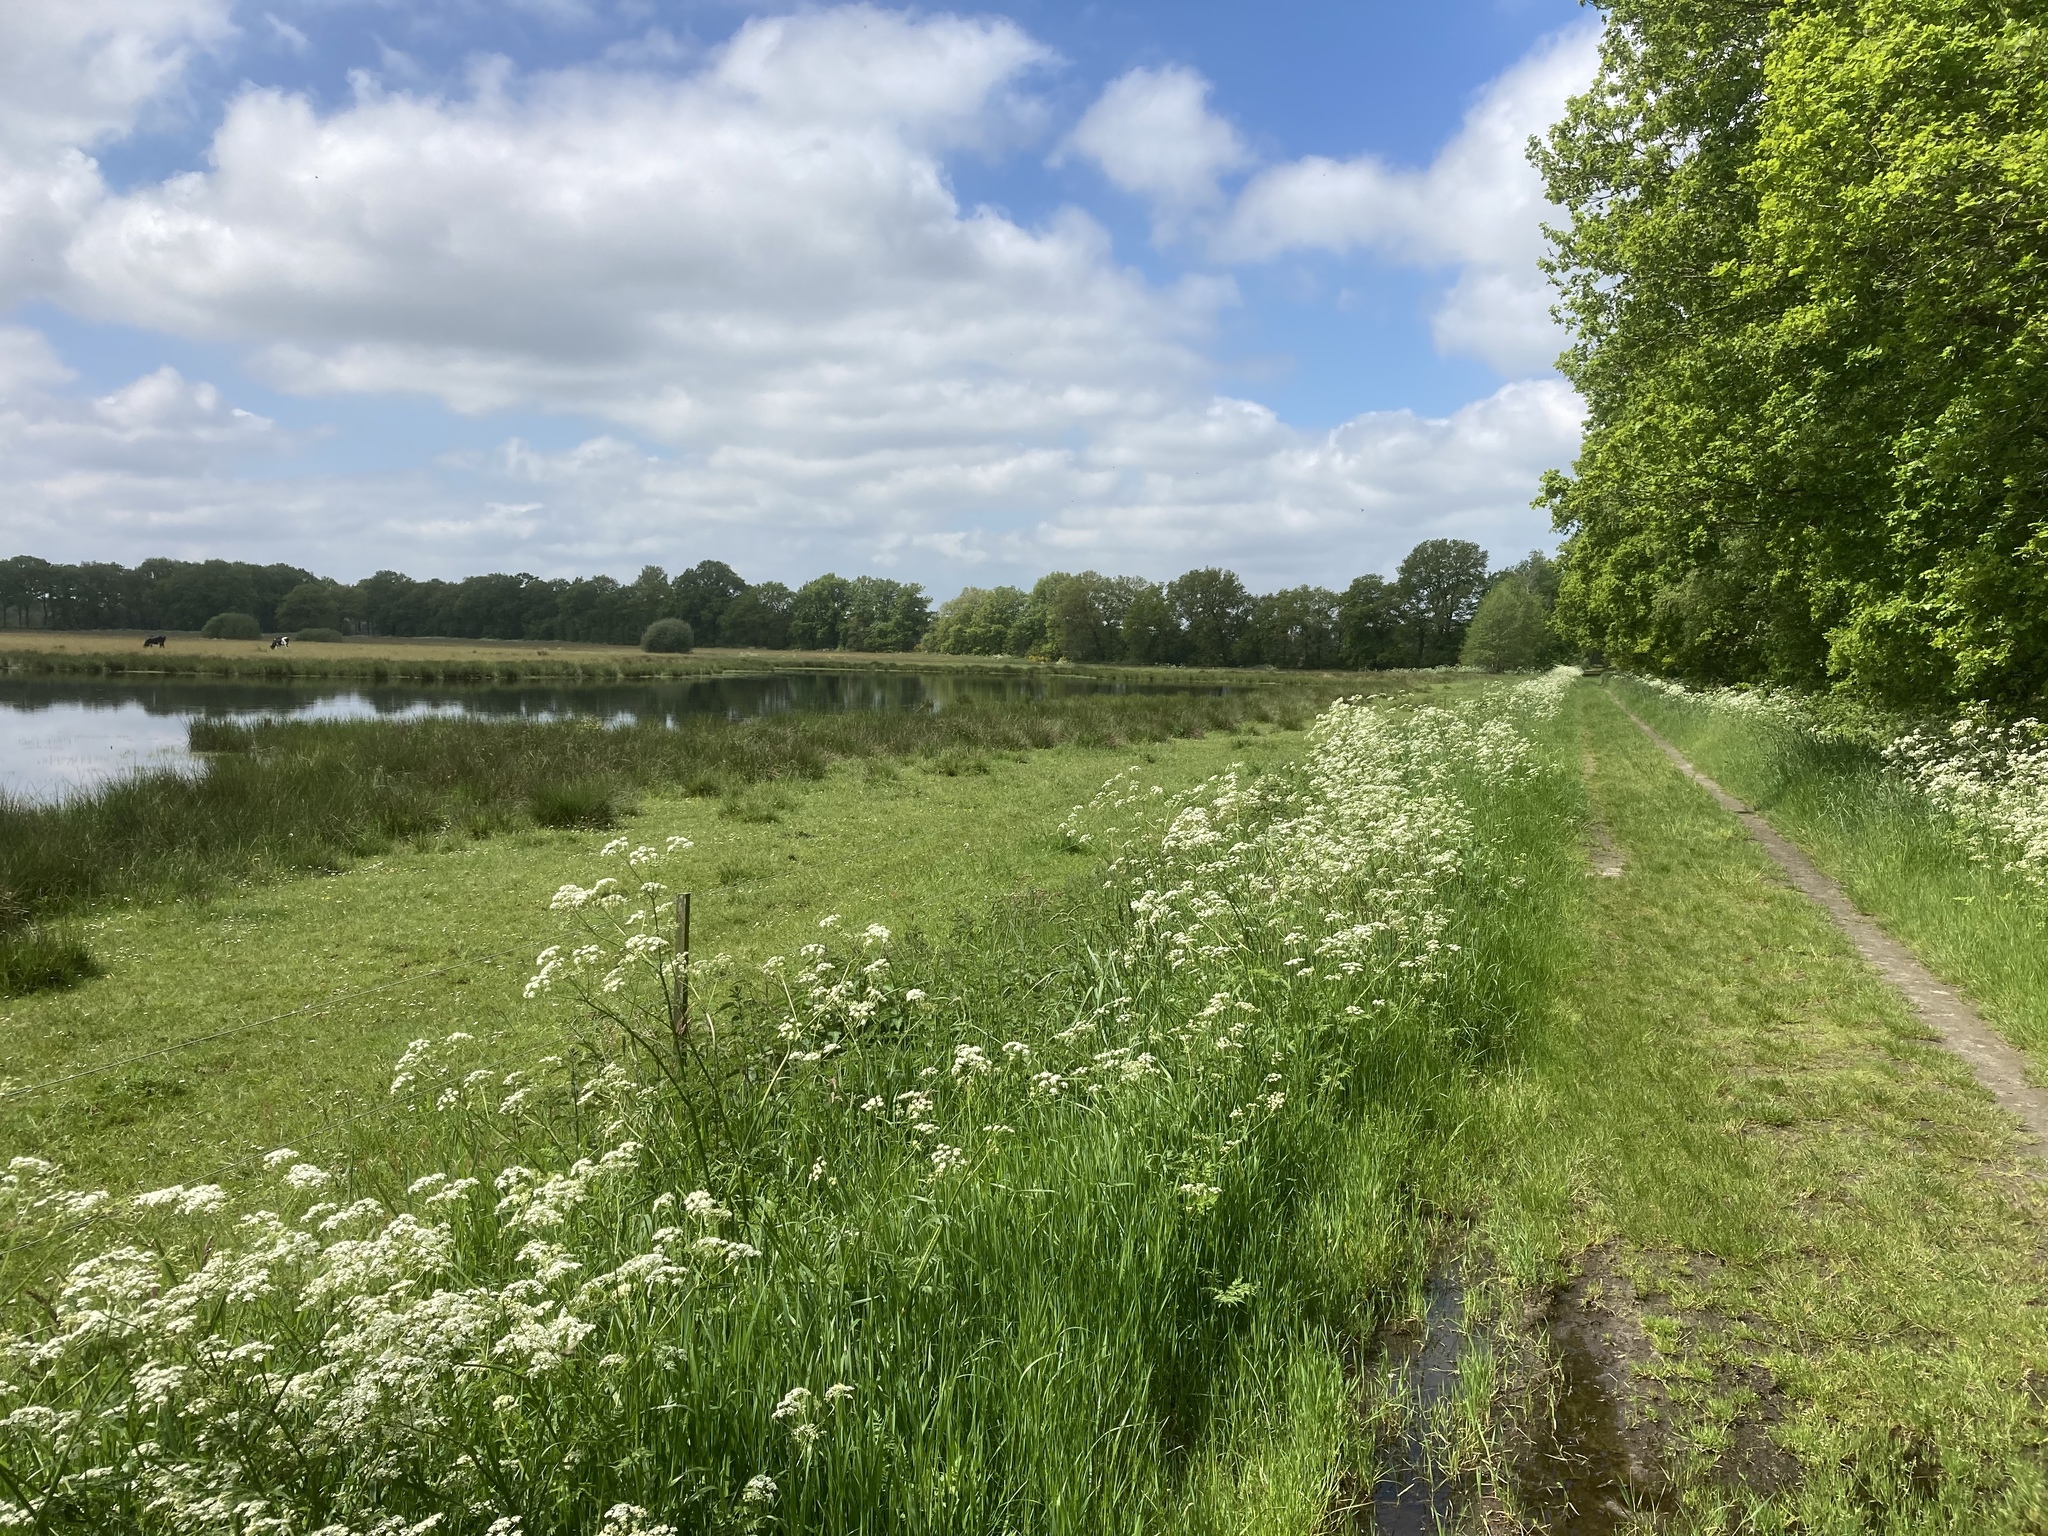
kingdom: Plantae
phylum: Tracheophyta
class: Magnoliopsida
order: Apiales
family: Apiaceae
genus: Anthriscus
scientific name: Anthriscus sylvestris
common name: Cow parsley
